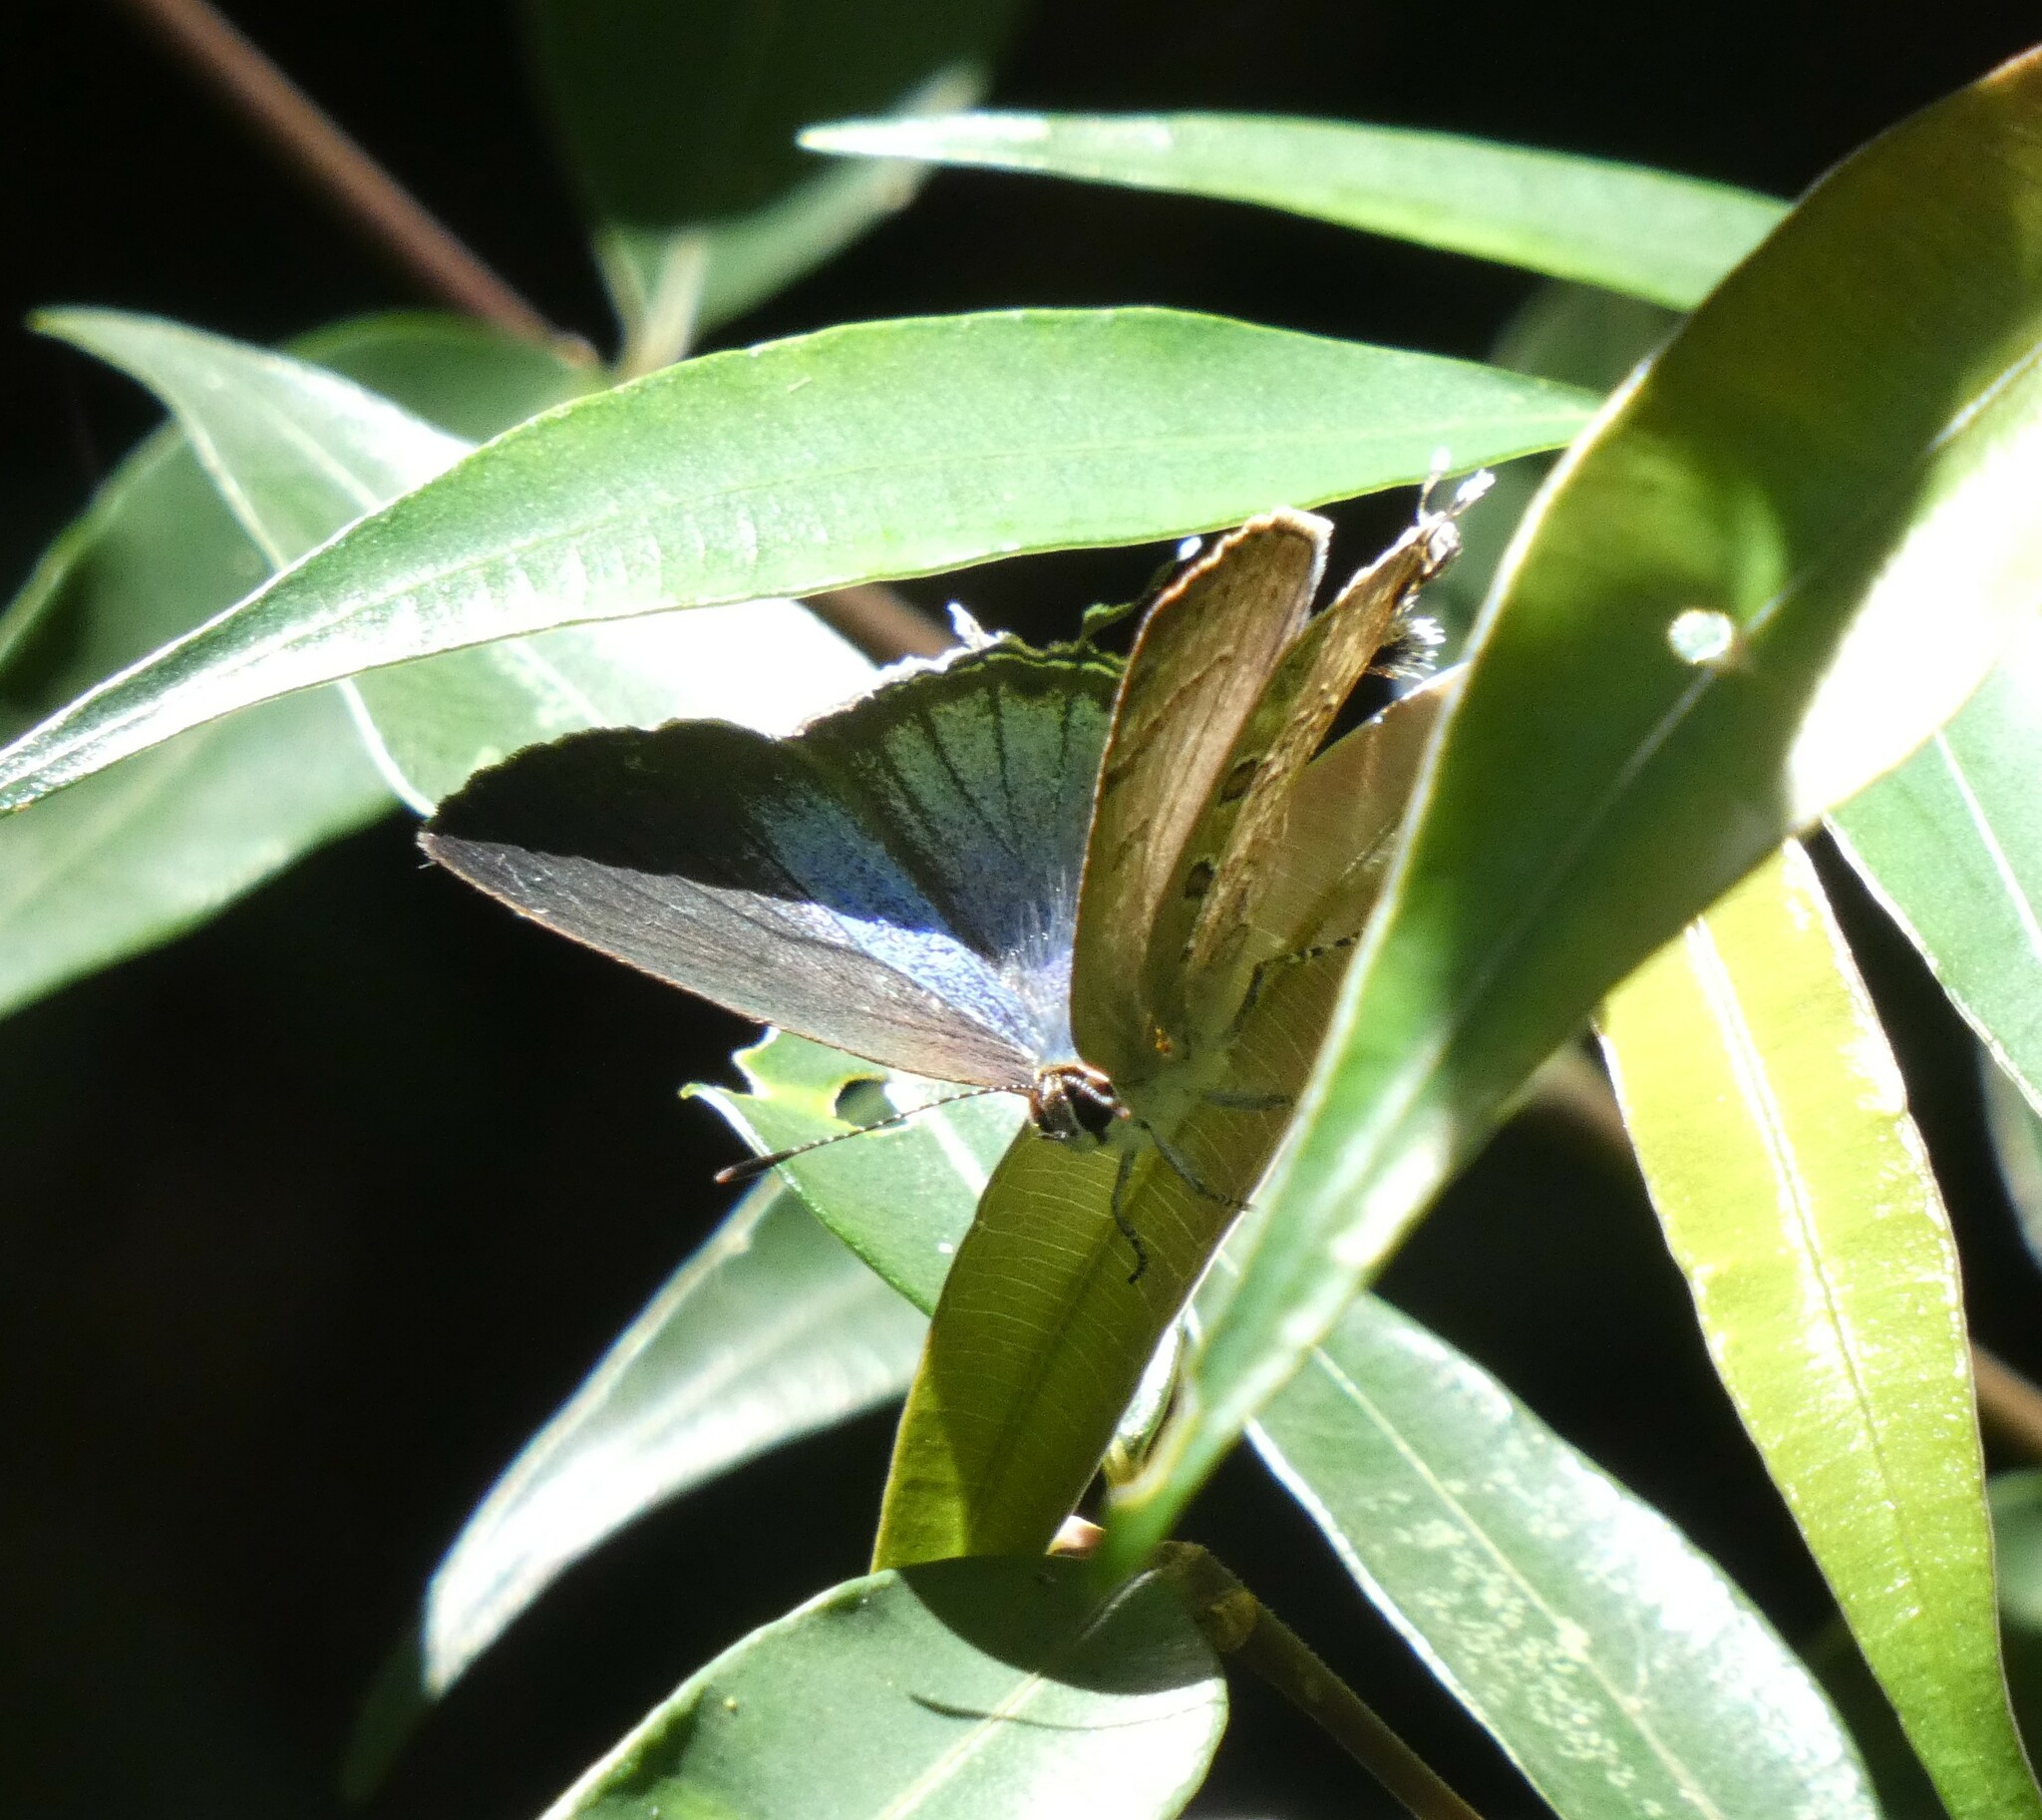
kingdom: Animalia
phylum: Arthropoda
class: Insecta
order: Lepidoptera
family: Lycaenidae
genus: Strymon
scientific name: Strymon
